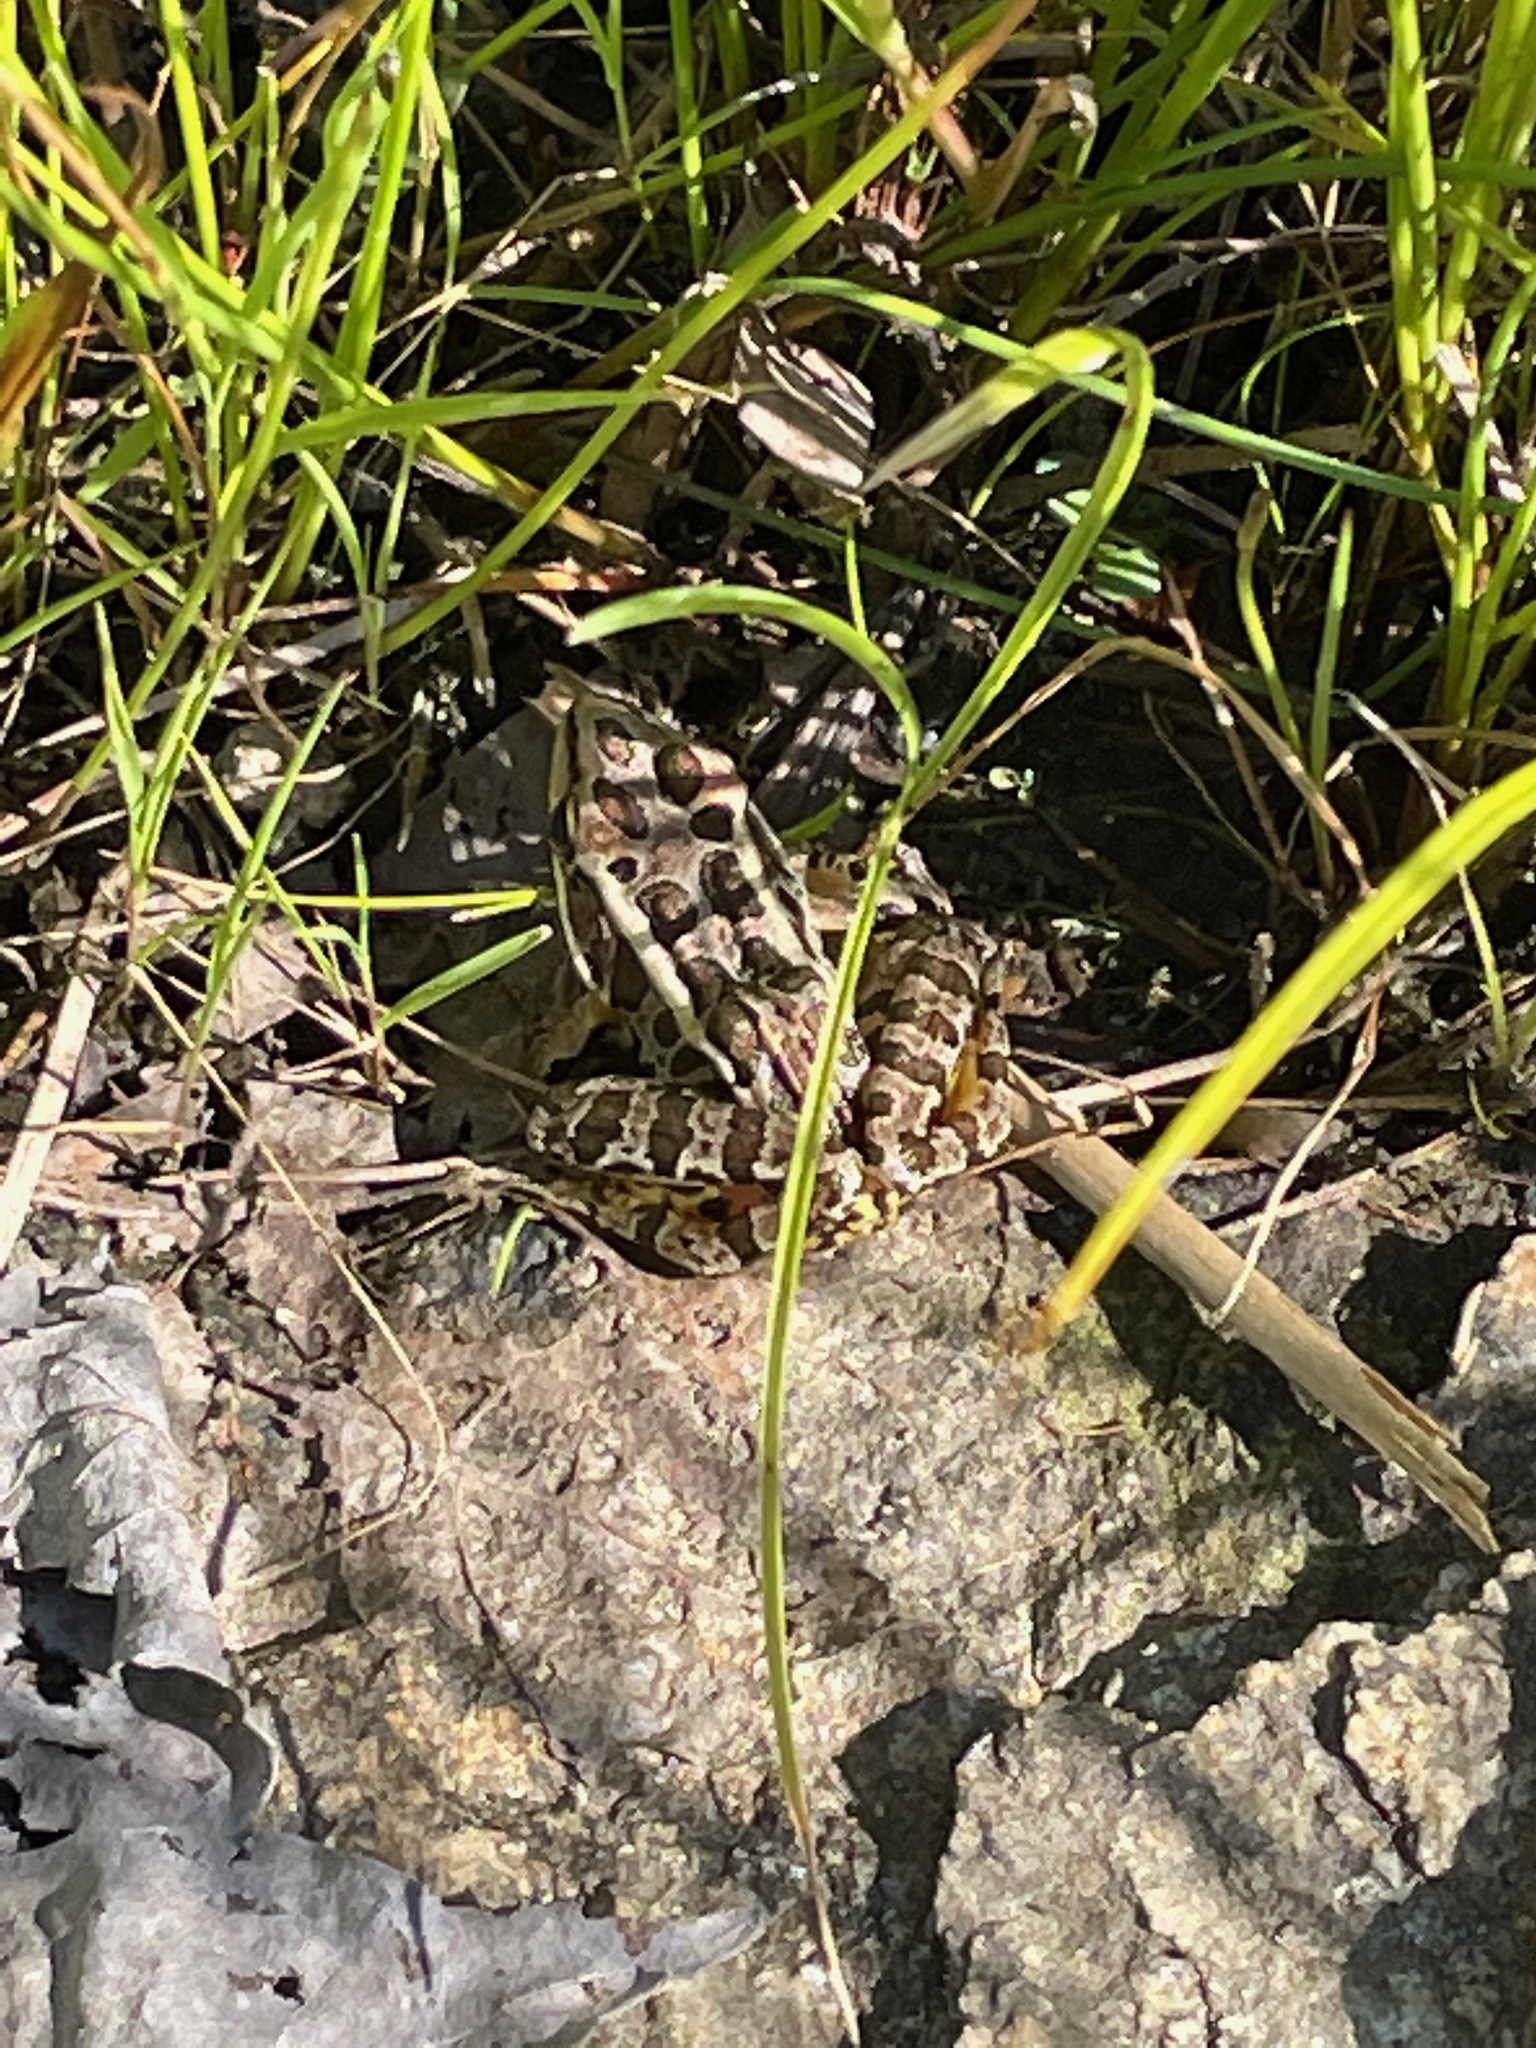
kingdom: Animalia
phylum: Chordata
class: Amphibia
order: Anura
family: Ranidae
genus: Lithobates
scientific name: Lithobates palustris
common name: Pickerel frog
